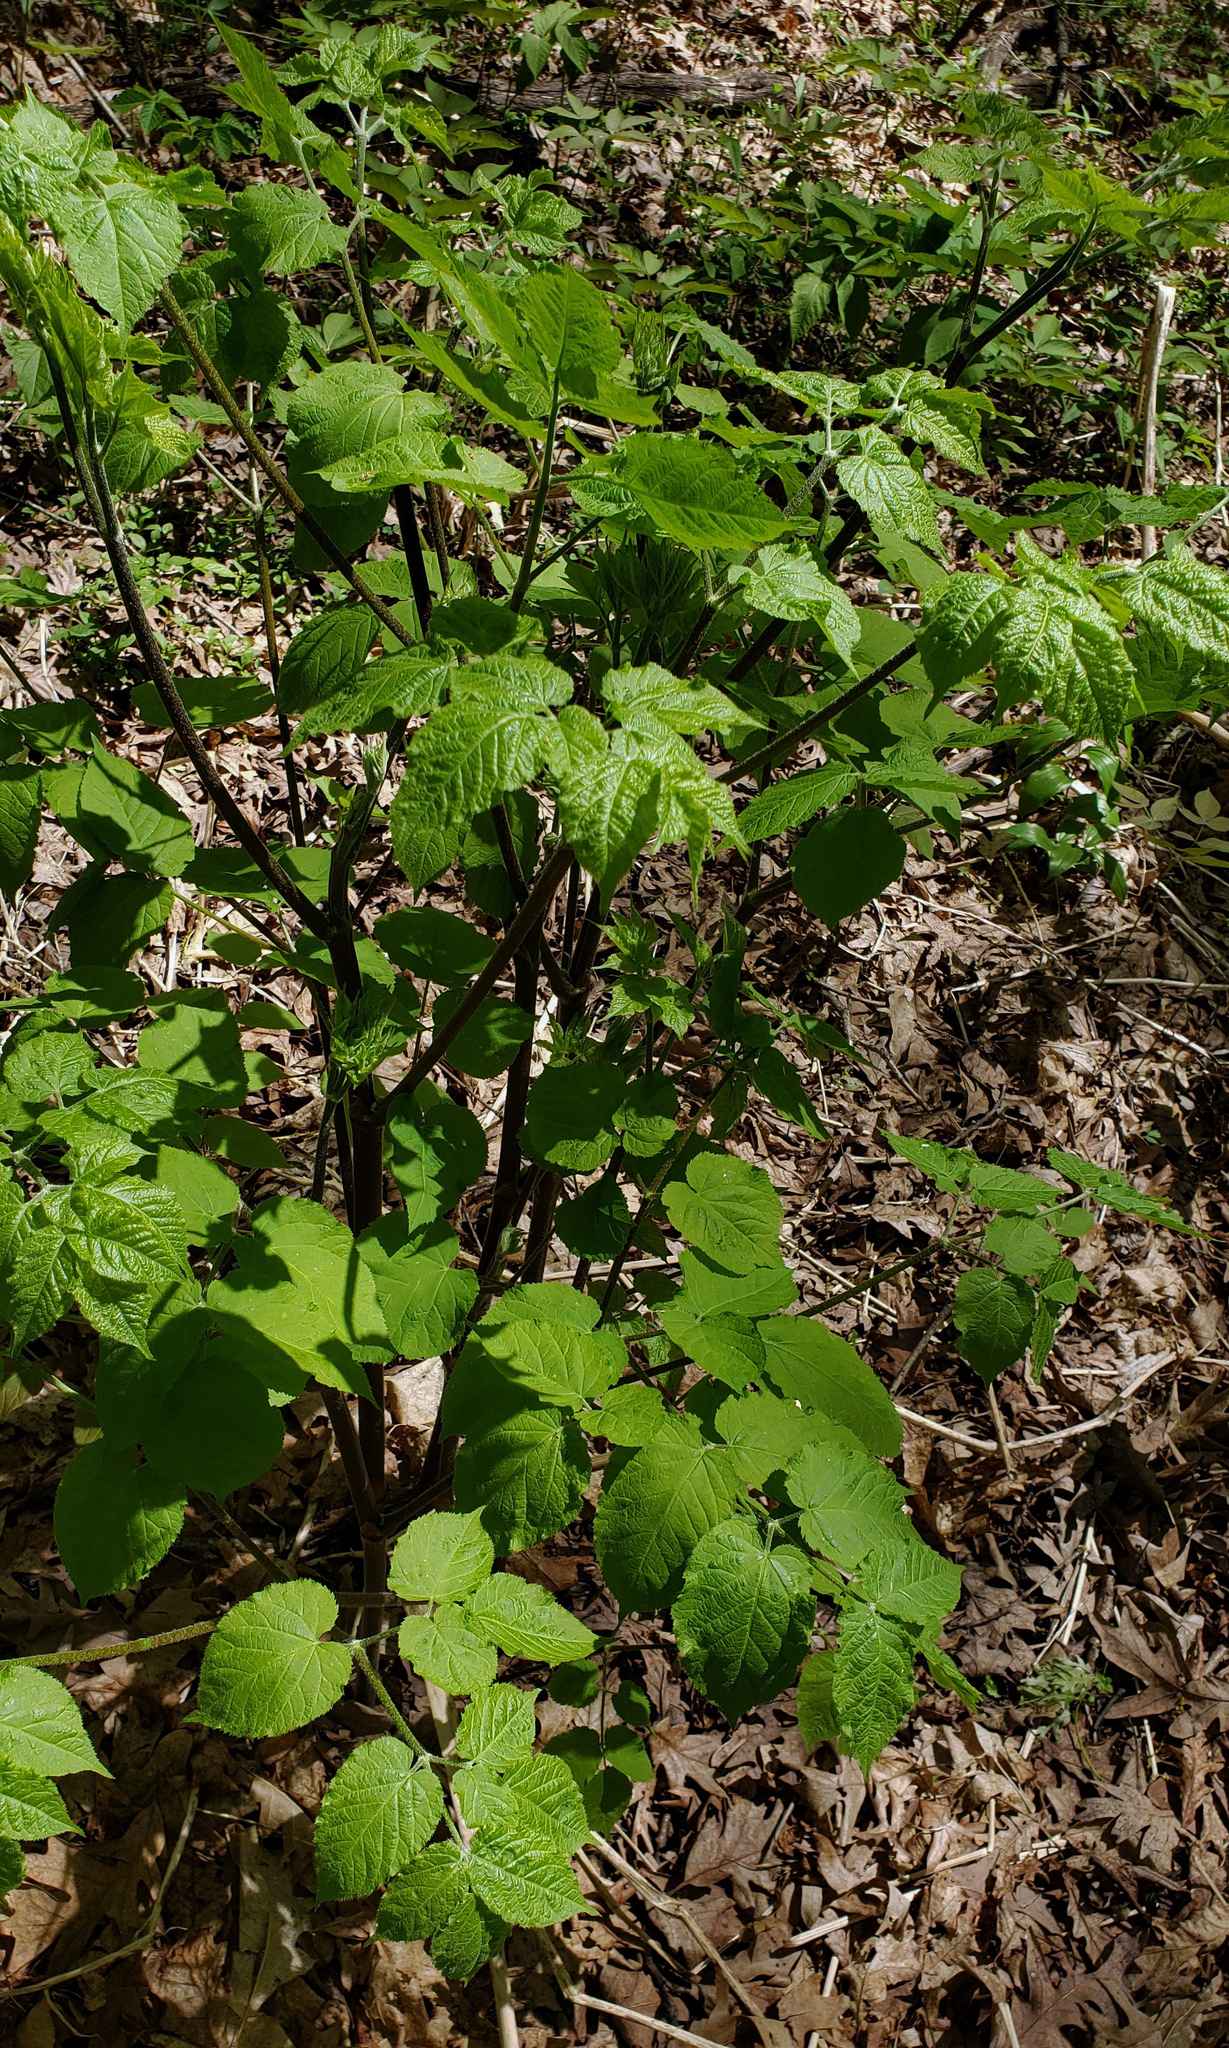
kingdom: Plantae
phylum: Tracheophyta
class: Magnoliopsida
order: Apiales
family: Araliaceae
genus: Aralia
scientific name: Aralia racemosa
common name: American-spikenard
